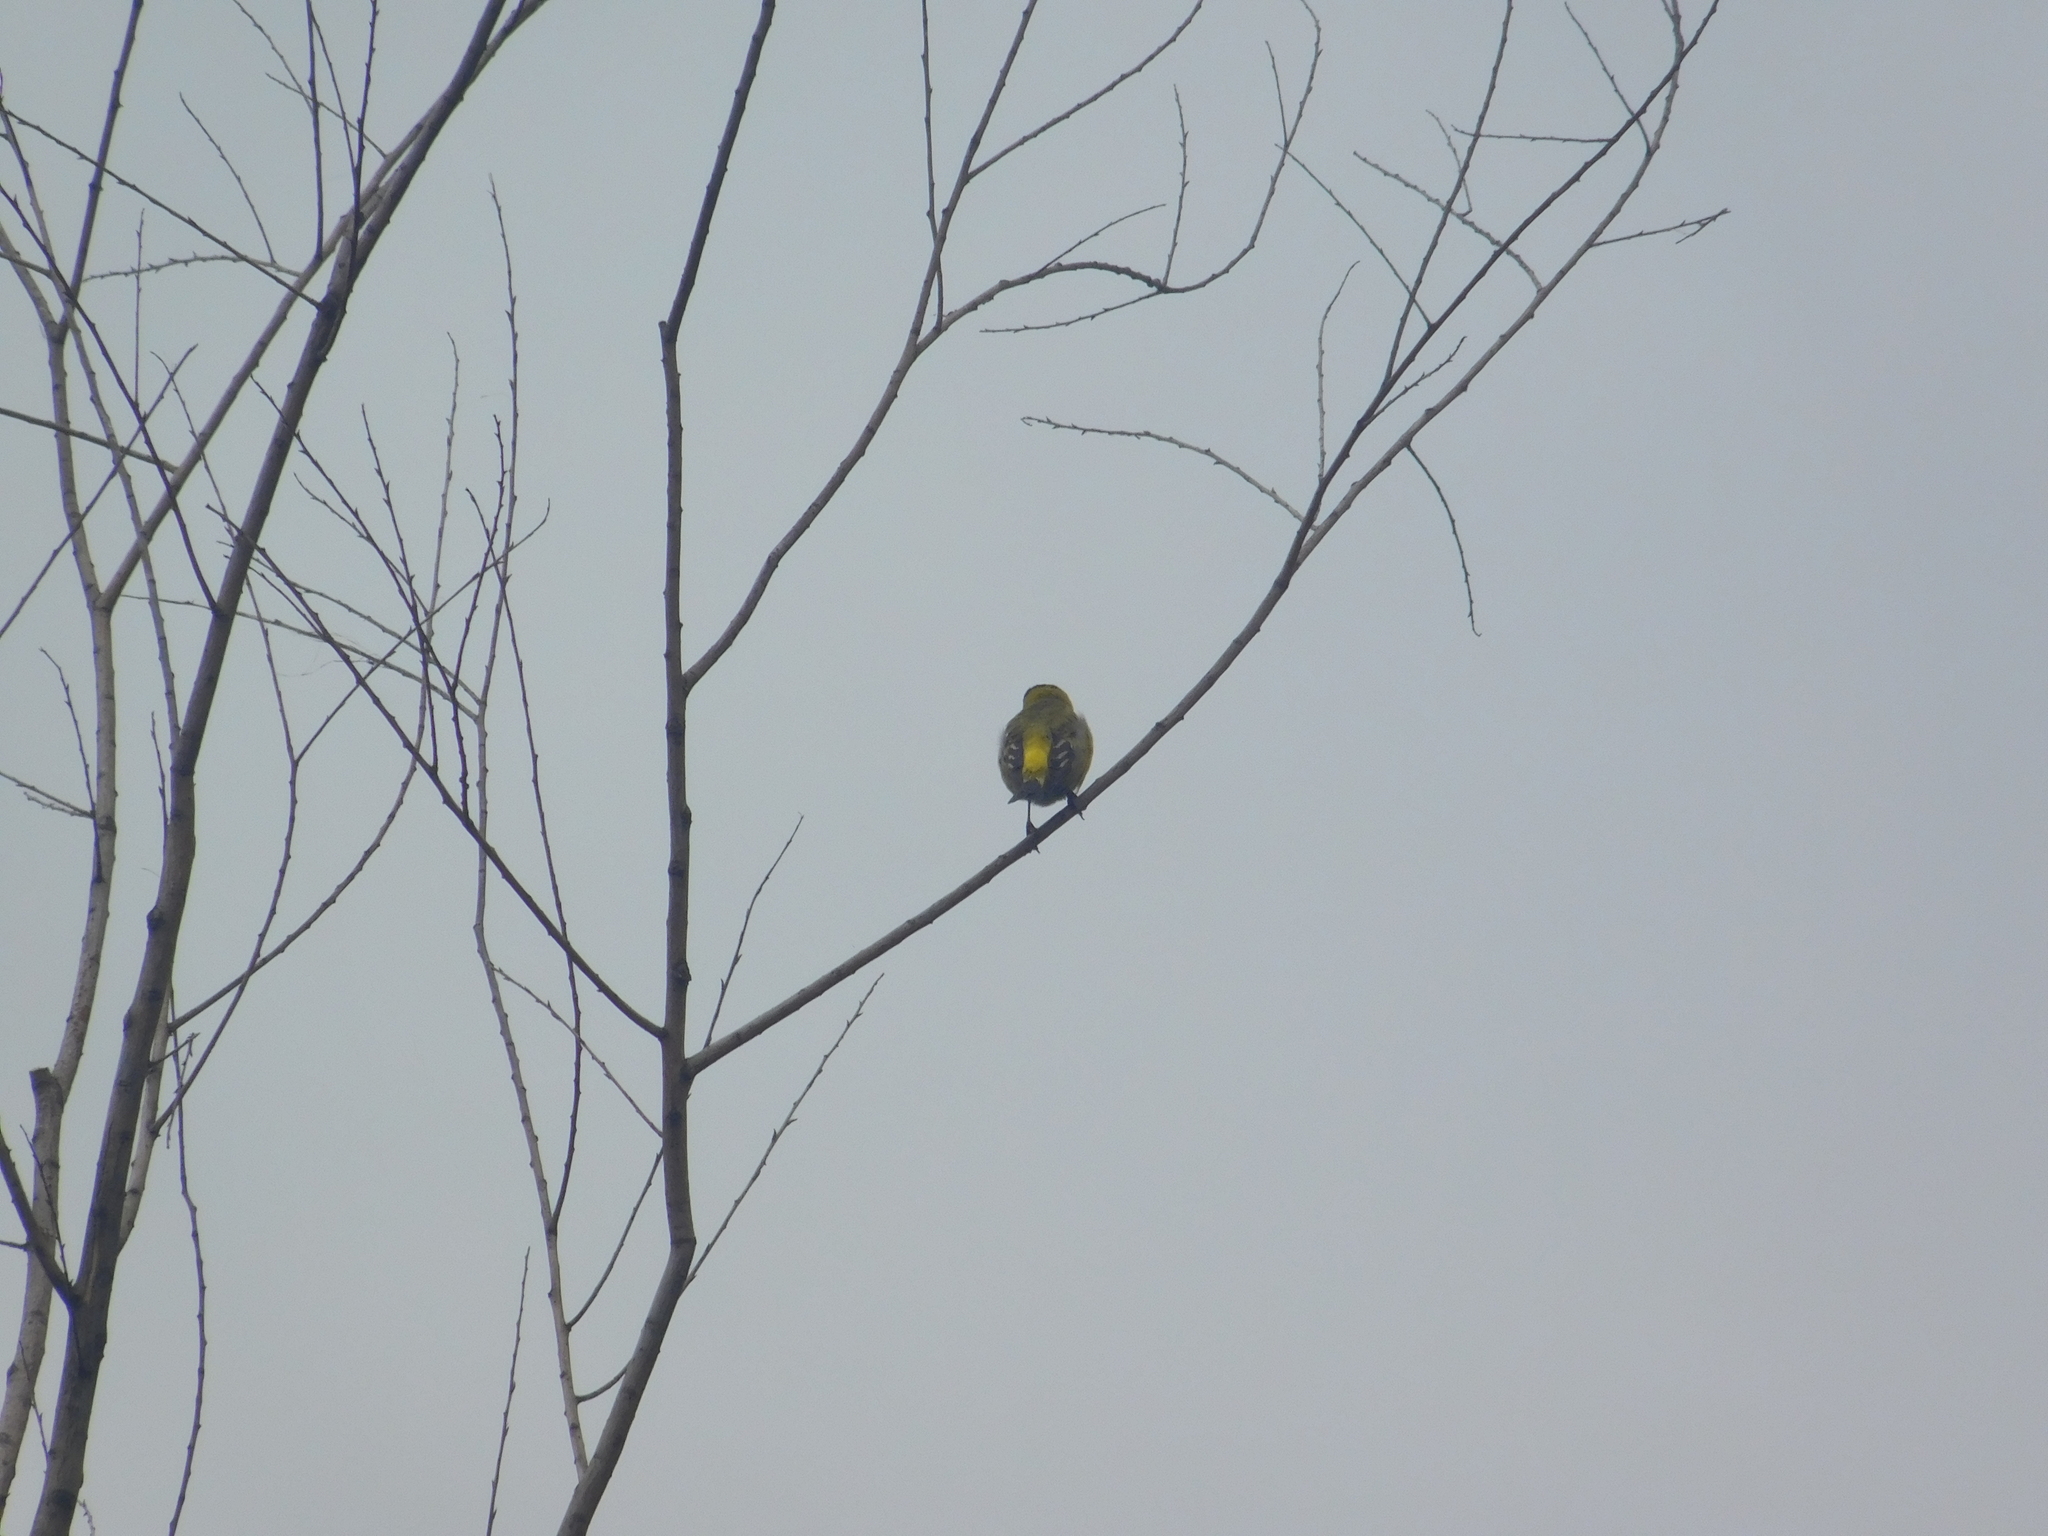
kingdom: Animalia
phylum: Chordata
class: Aves
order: Passeriformes
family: Fringillidae
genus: Spinus
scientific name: Spinus magellanicus
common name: Hooded siskin
